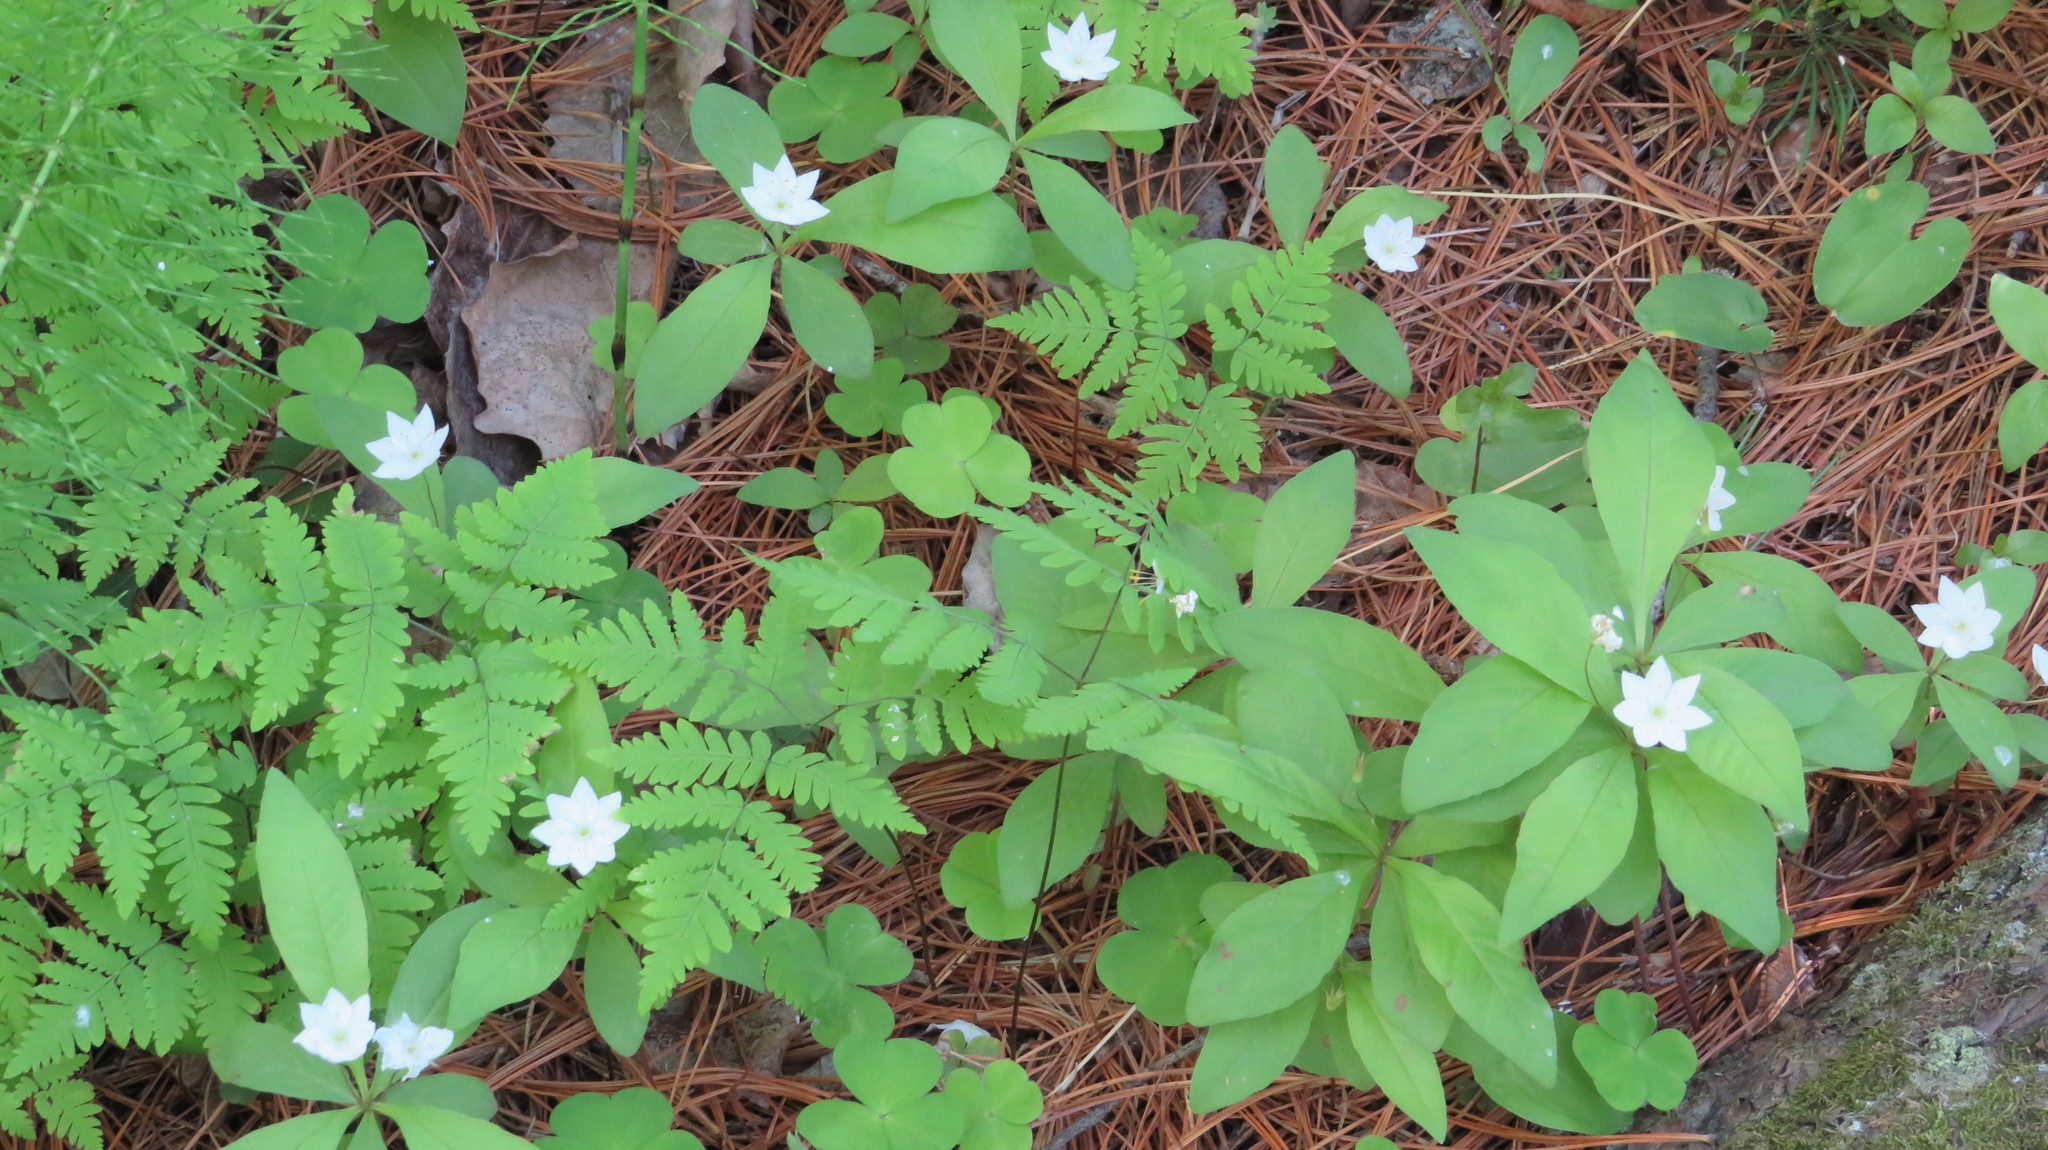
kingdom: Plantae
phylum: Tracheophyta
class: Magnoliopsida
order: Ericales
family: Primulaceae
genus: Lysimachia
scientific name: Lysimachia europaea
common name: Arctic starflower
